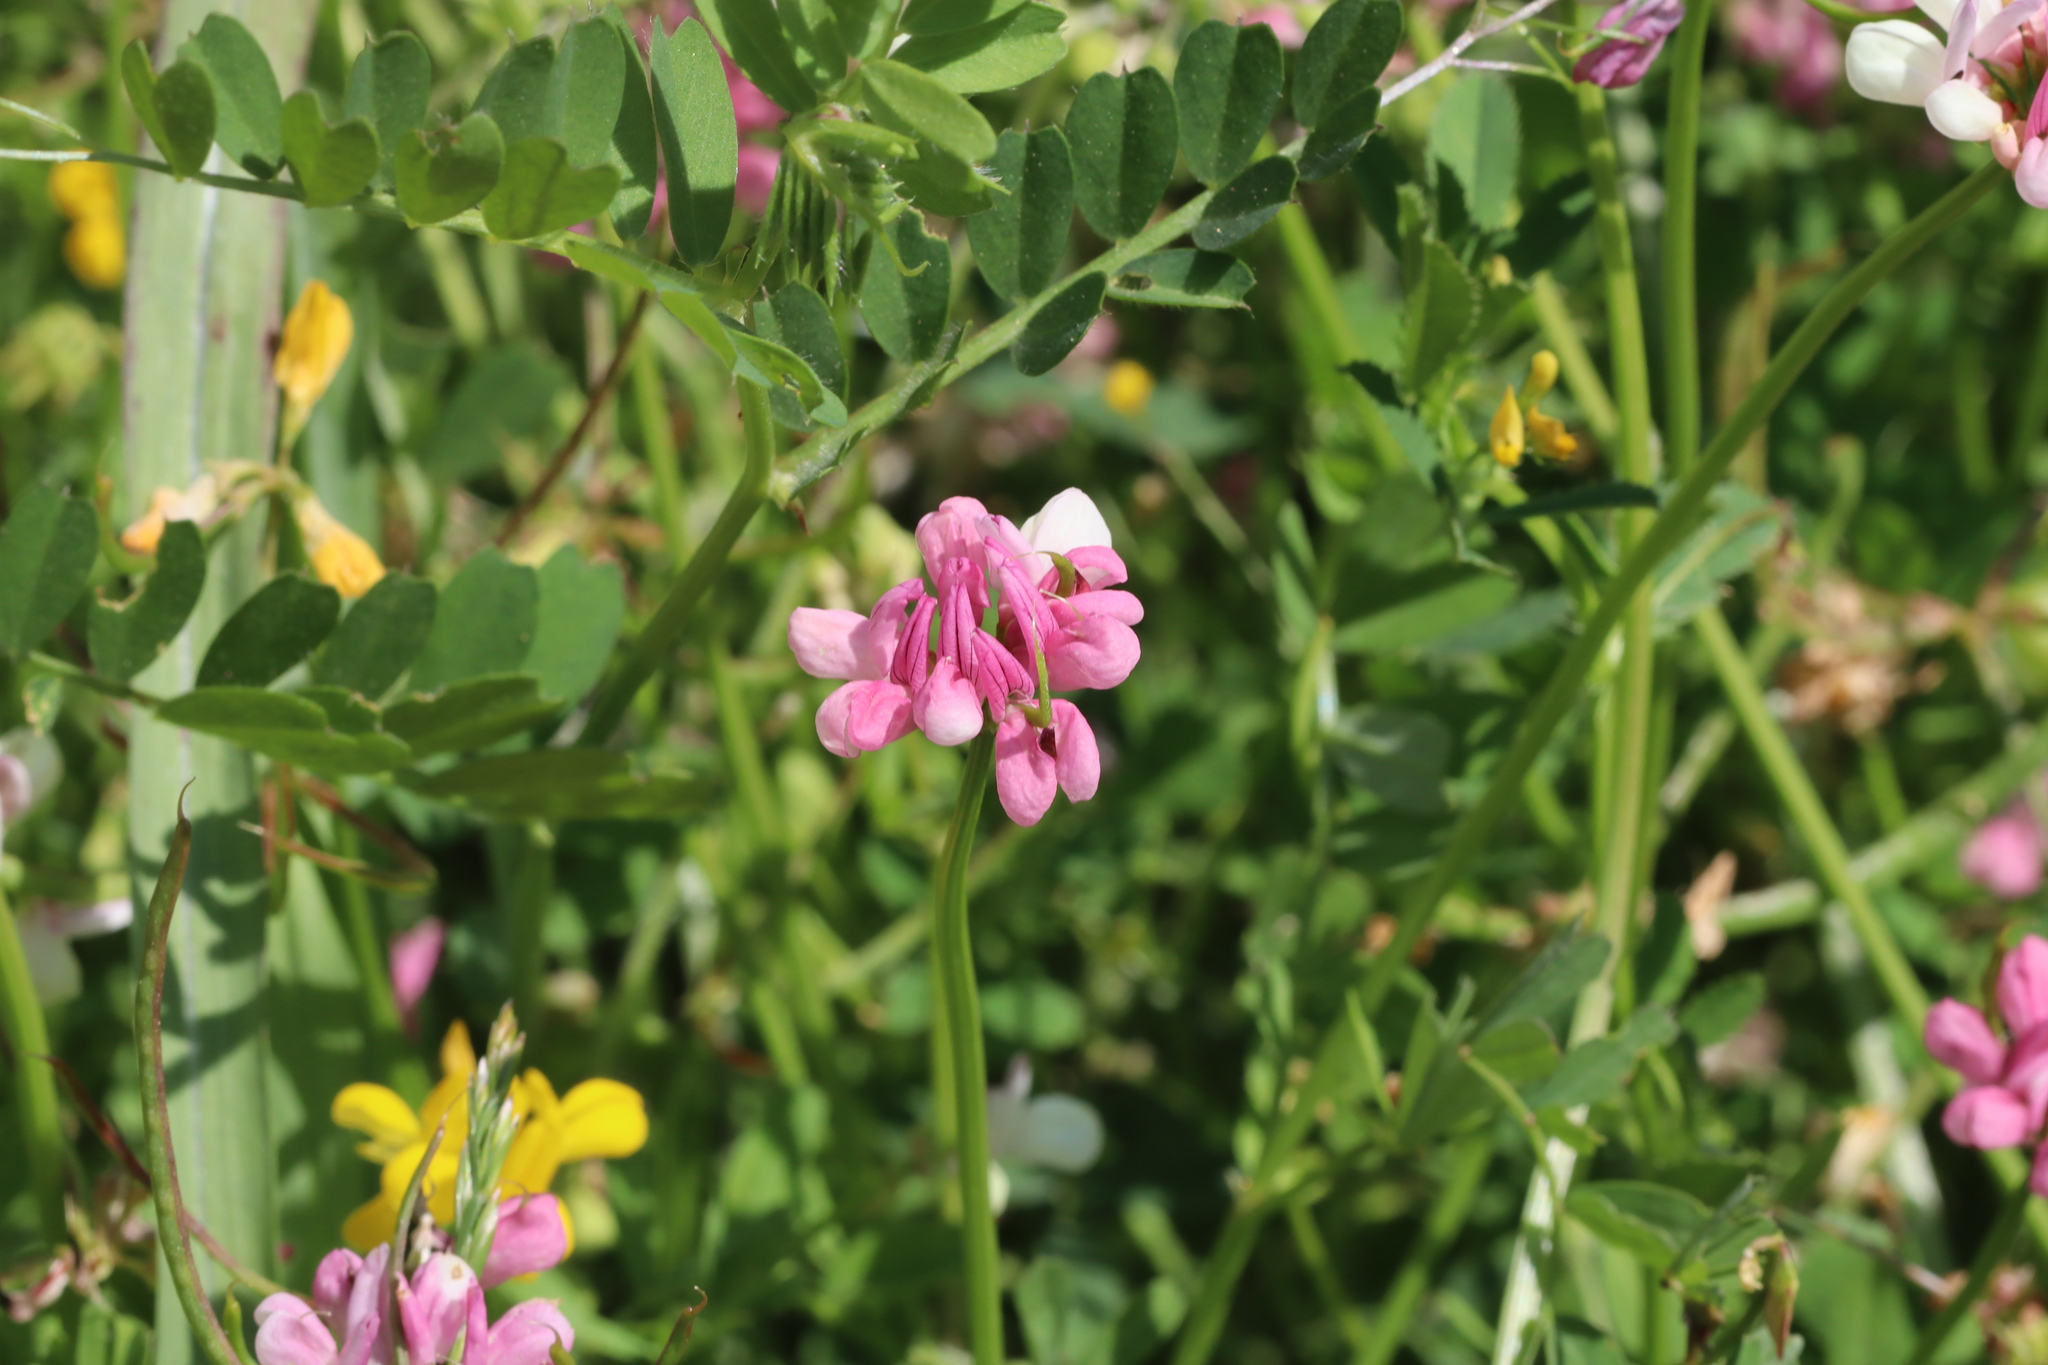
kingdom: Plantae
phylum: Tracheophyta
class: Magnoliopsida
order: Fabales
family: Fabaceae
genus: Coronilla
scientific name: Coronilla rostrata
